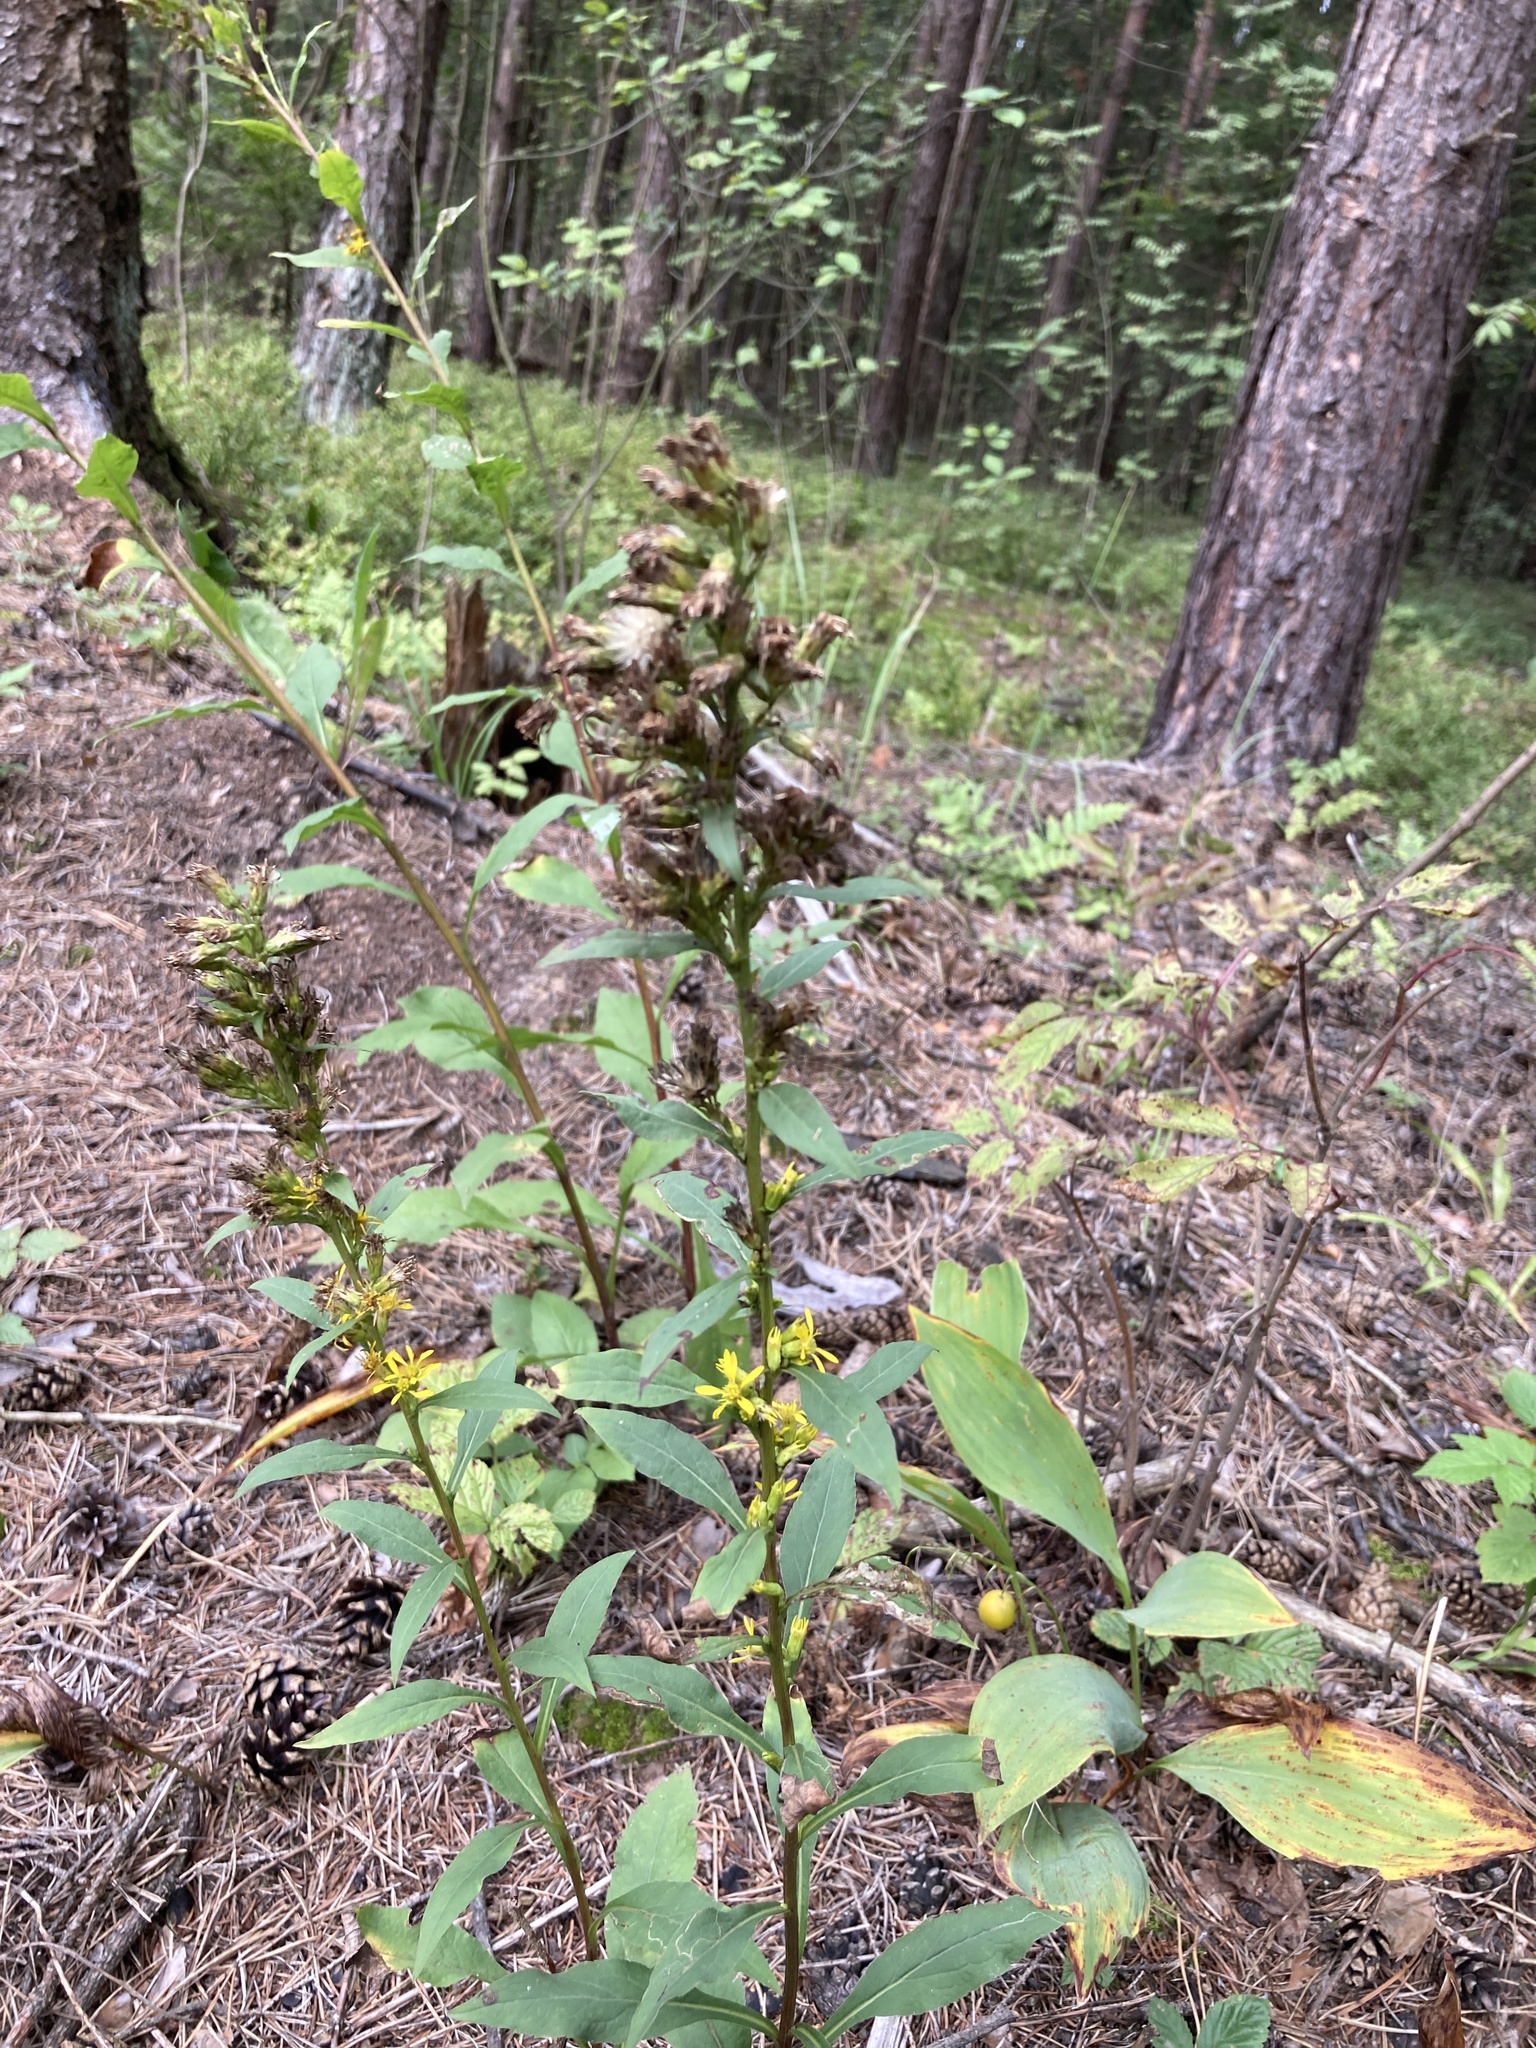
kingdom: Plantae
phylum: Tracheophyta
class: Magnoliopsida
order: Asterales
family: Asteraceae
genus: Solidago
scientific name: Solidago virgaurea
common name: Goldenrod
